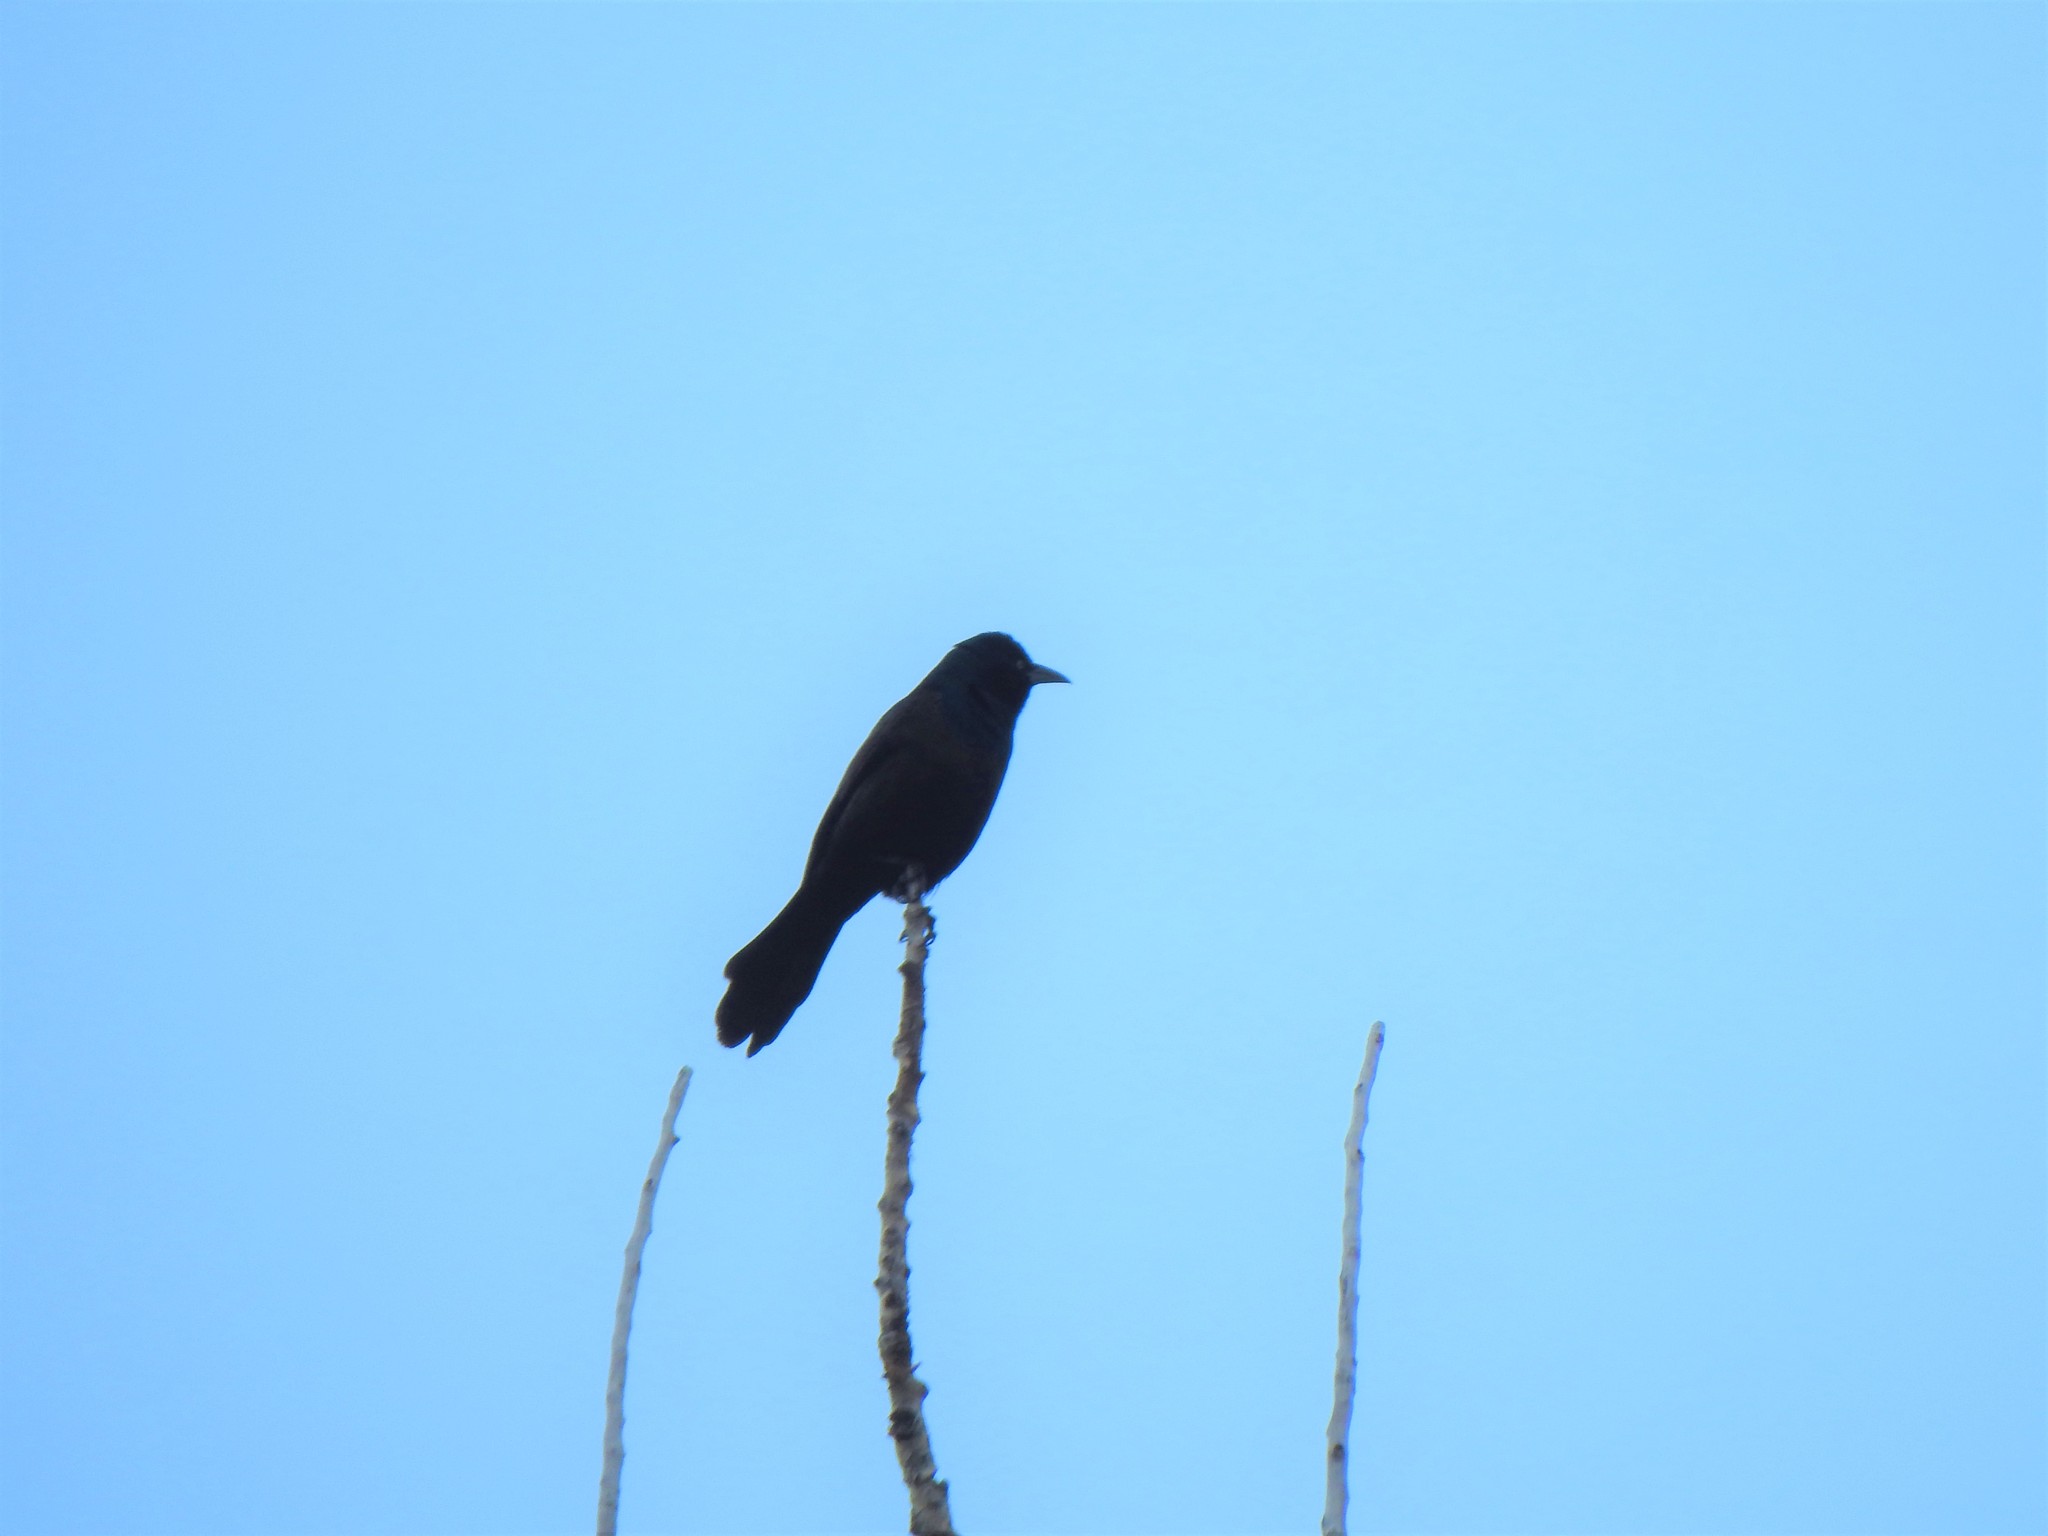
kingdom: Animalia
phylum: Chordata
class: Aves
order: Passeriformes
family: Icteridae
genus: Quiscalus
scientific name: Quiscalus quiscula
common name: Common grackle
